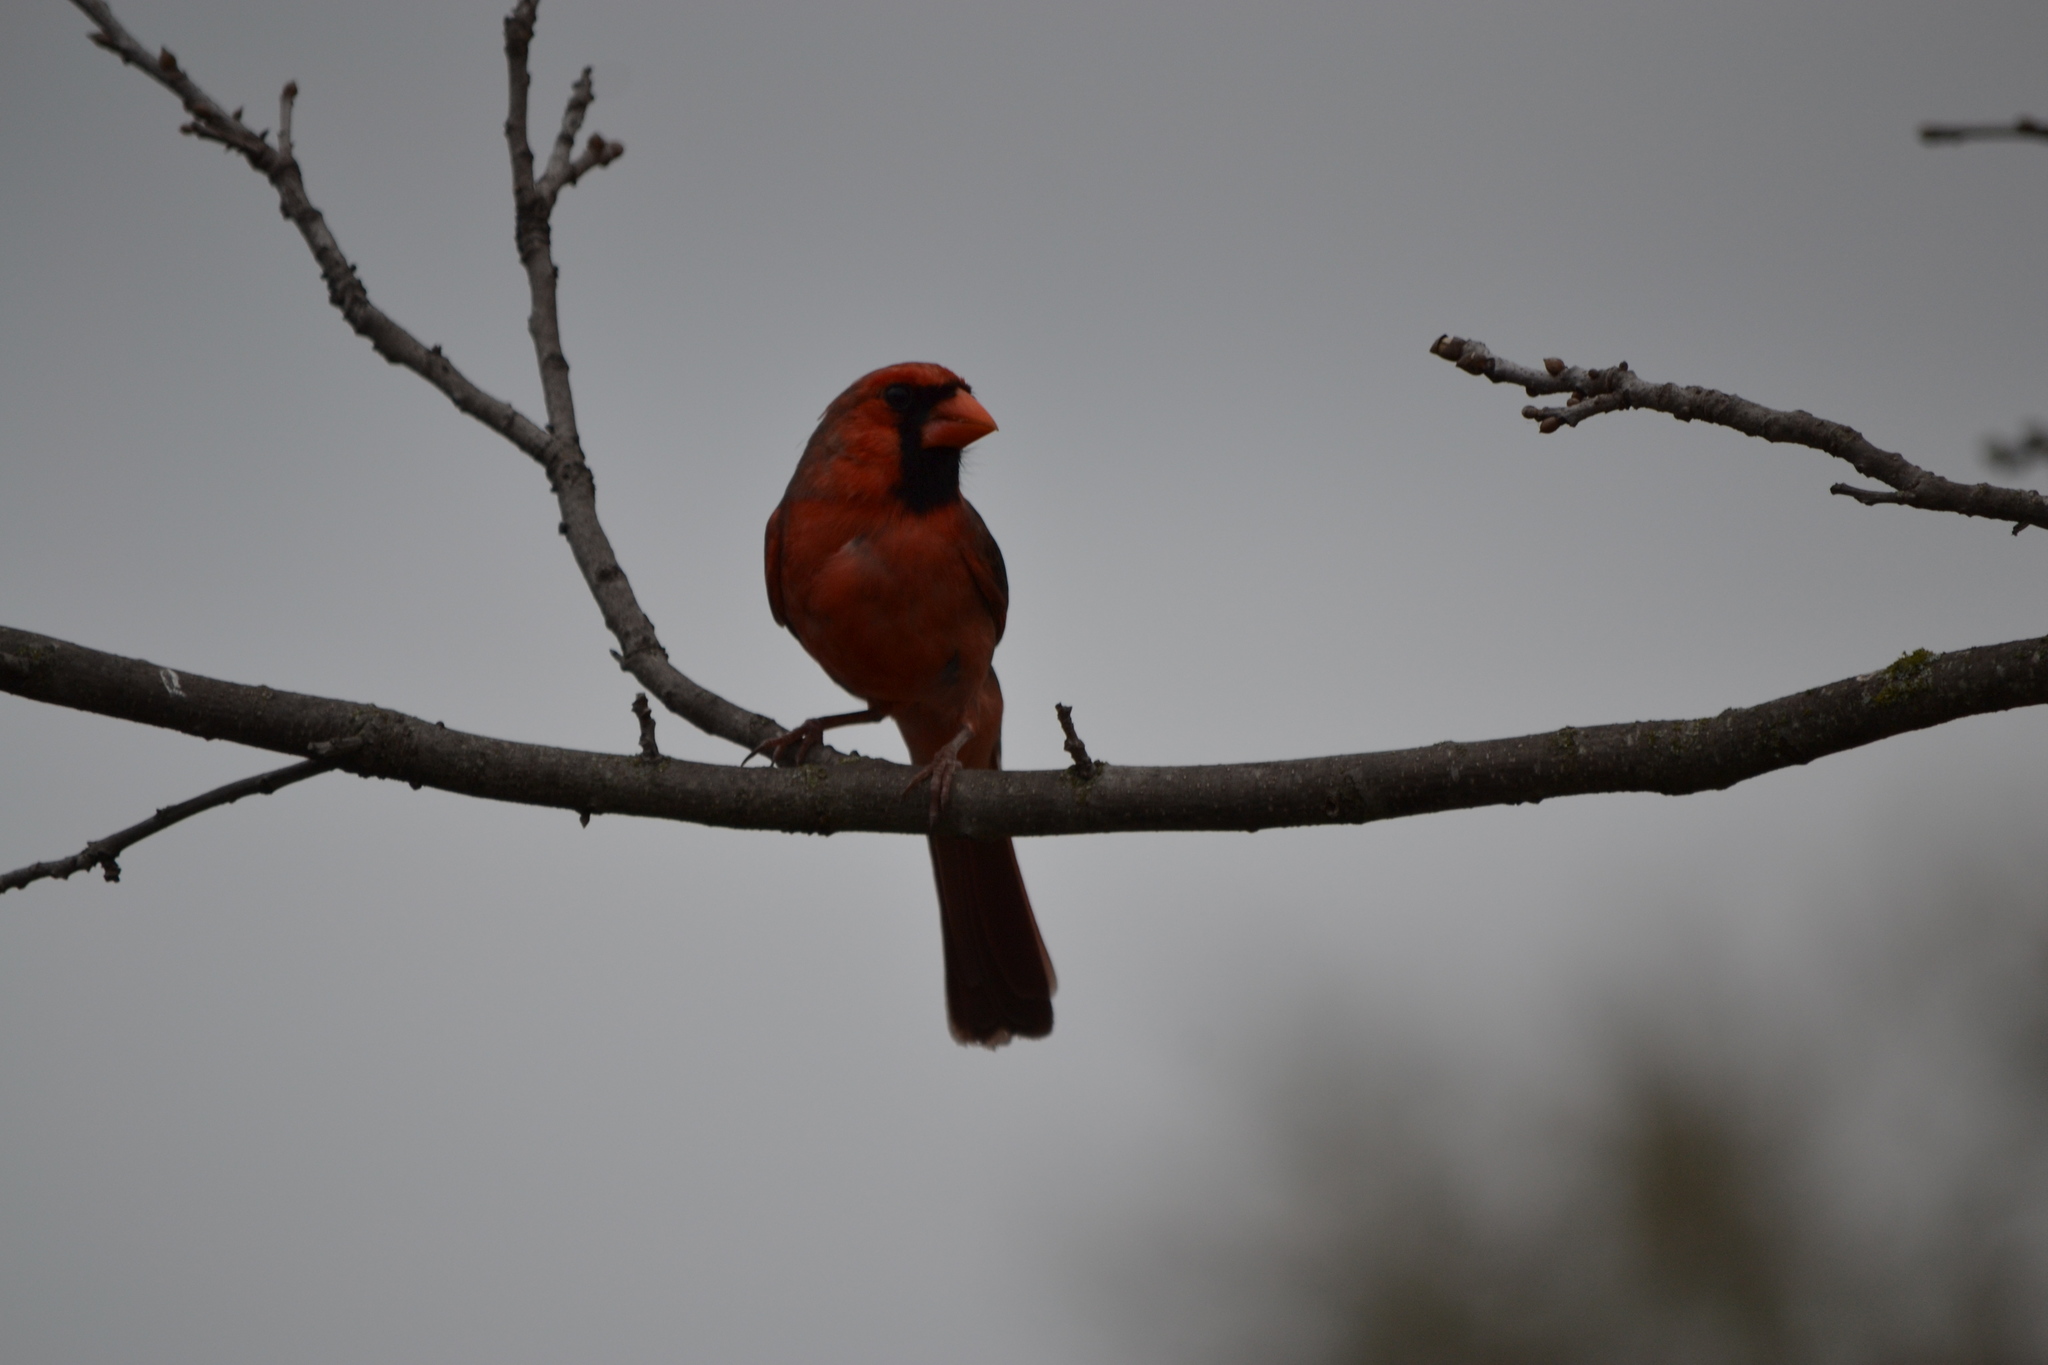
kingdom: Animalia
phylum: Chordata
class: Aves
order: Passeriformes
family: Cardinalidae
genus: Cardinalis
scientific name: Cardinalis cardinalis
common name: Northern cardinal
